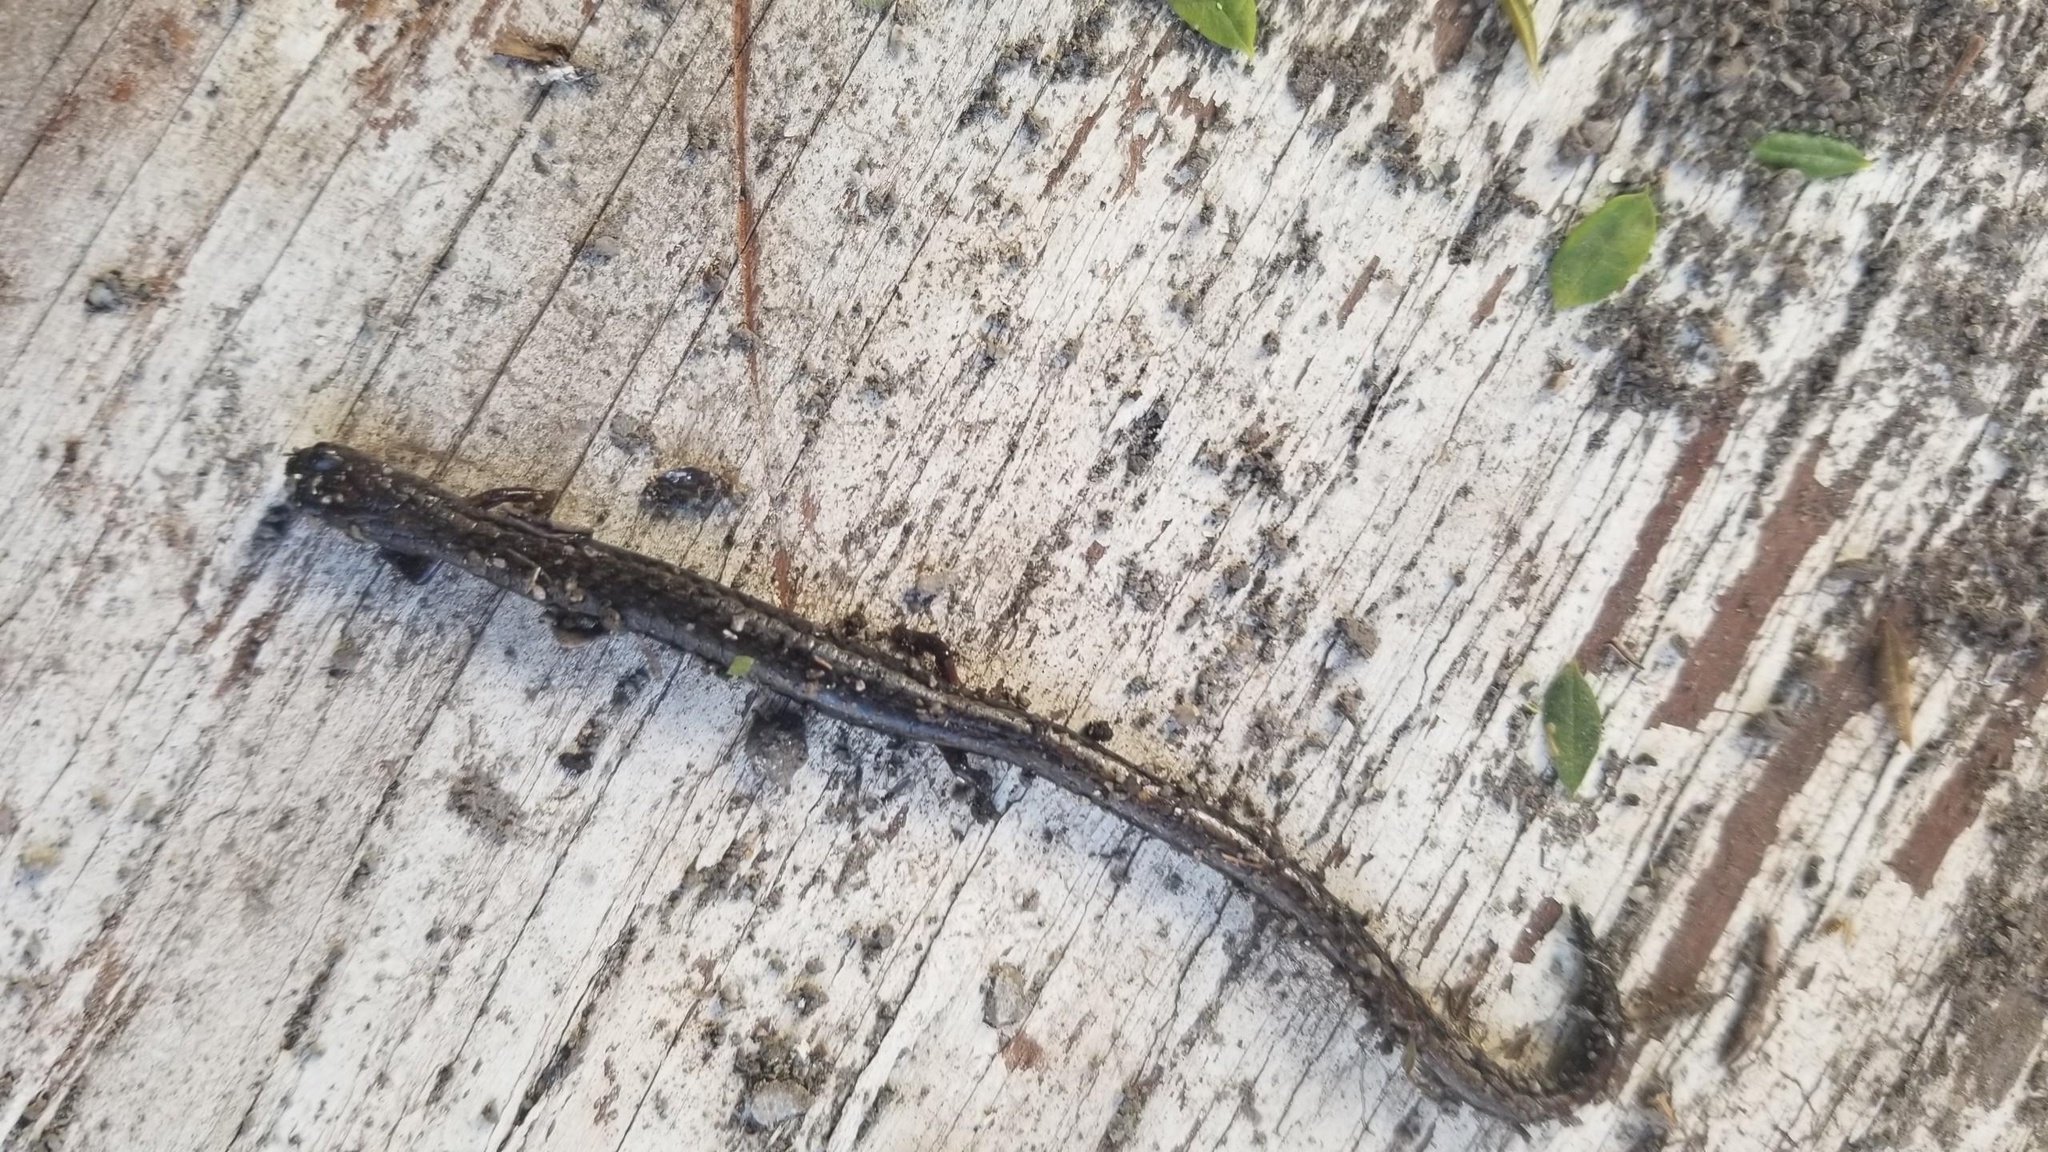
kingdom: Animalia
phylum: Chordata
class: Amphibia
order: Caudata
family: Plethodontidae
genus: Batrachoseps
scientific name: Batrachoseps attenuatus
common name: California slender salamander
